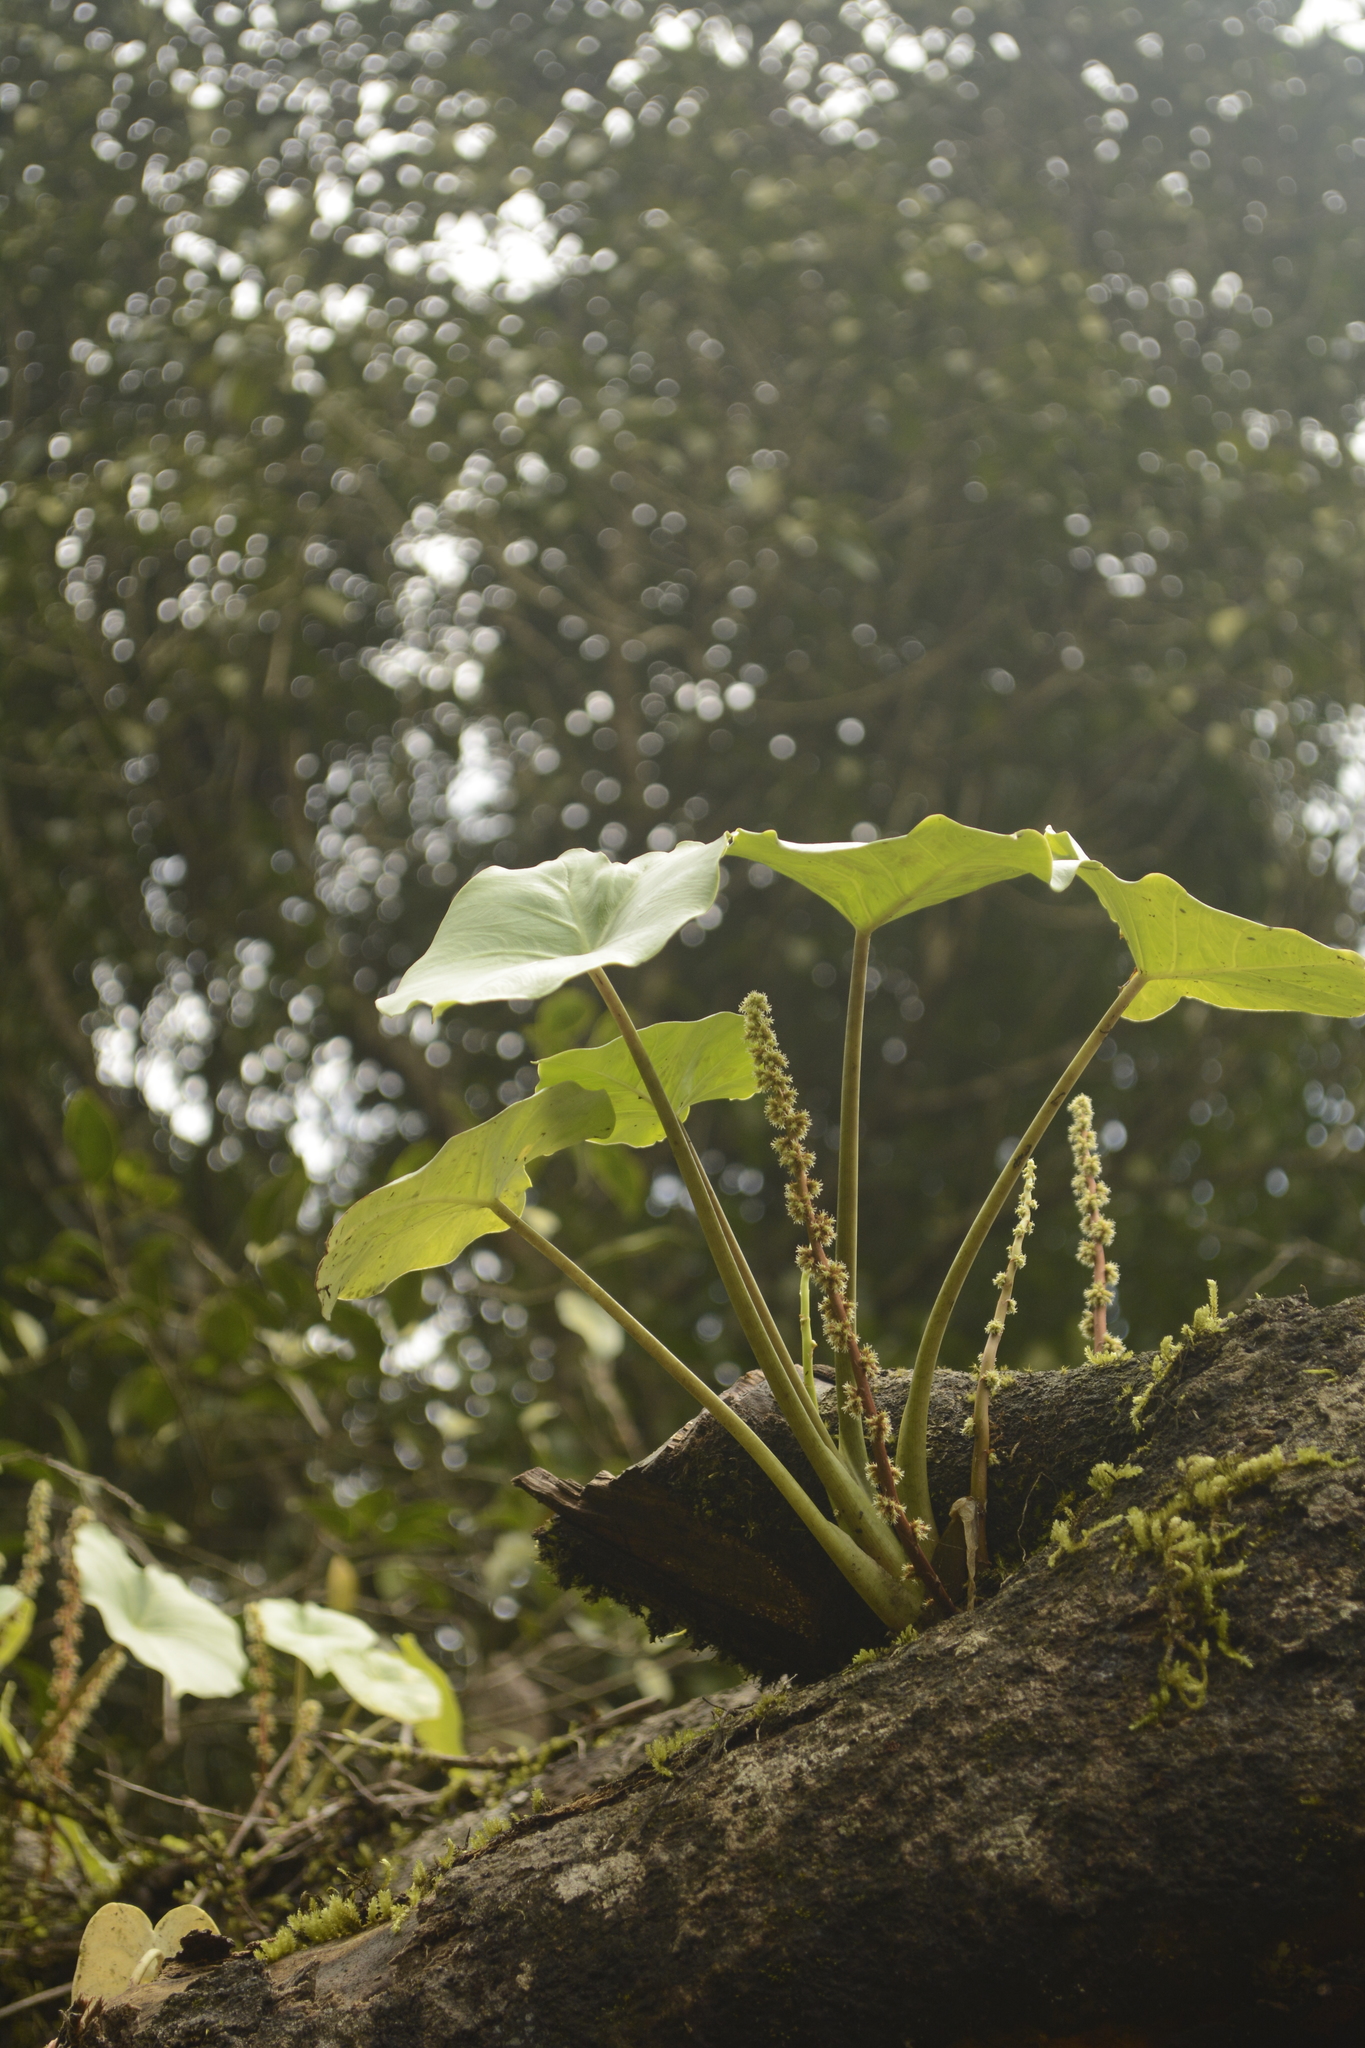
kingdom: Plantae
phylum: Tracheophyta
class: Liliopsida
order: Alismatales
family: Araceae
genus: Remusatia
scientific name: Remusatia vivipara
